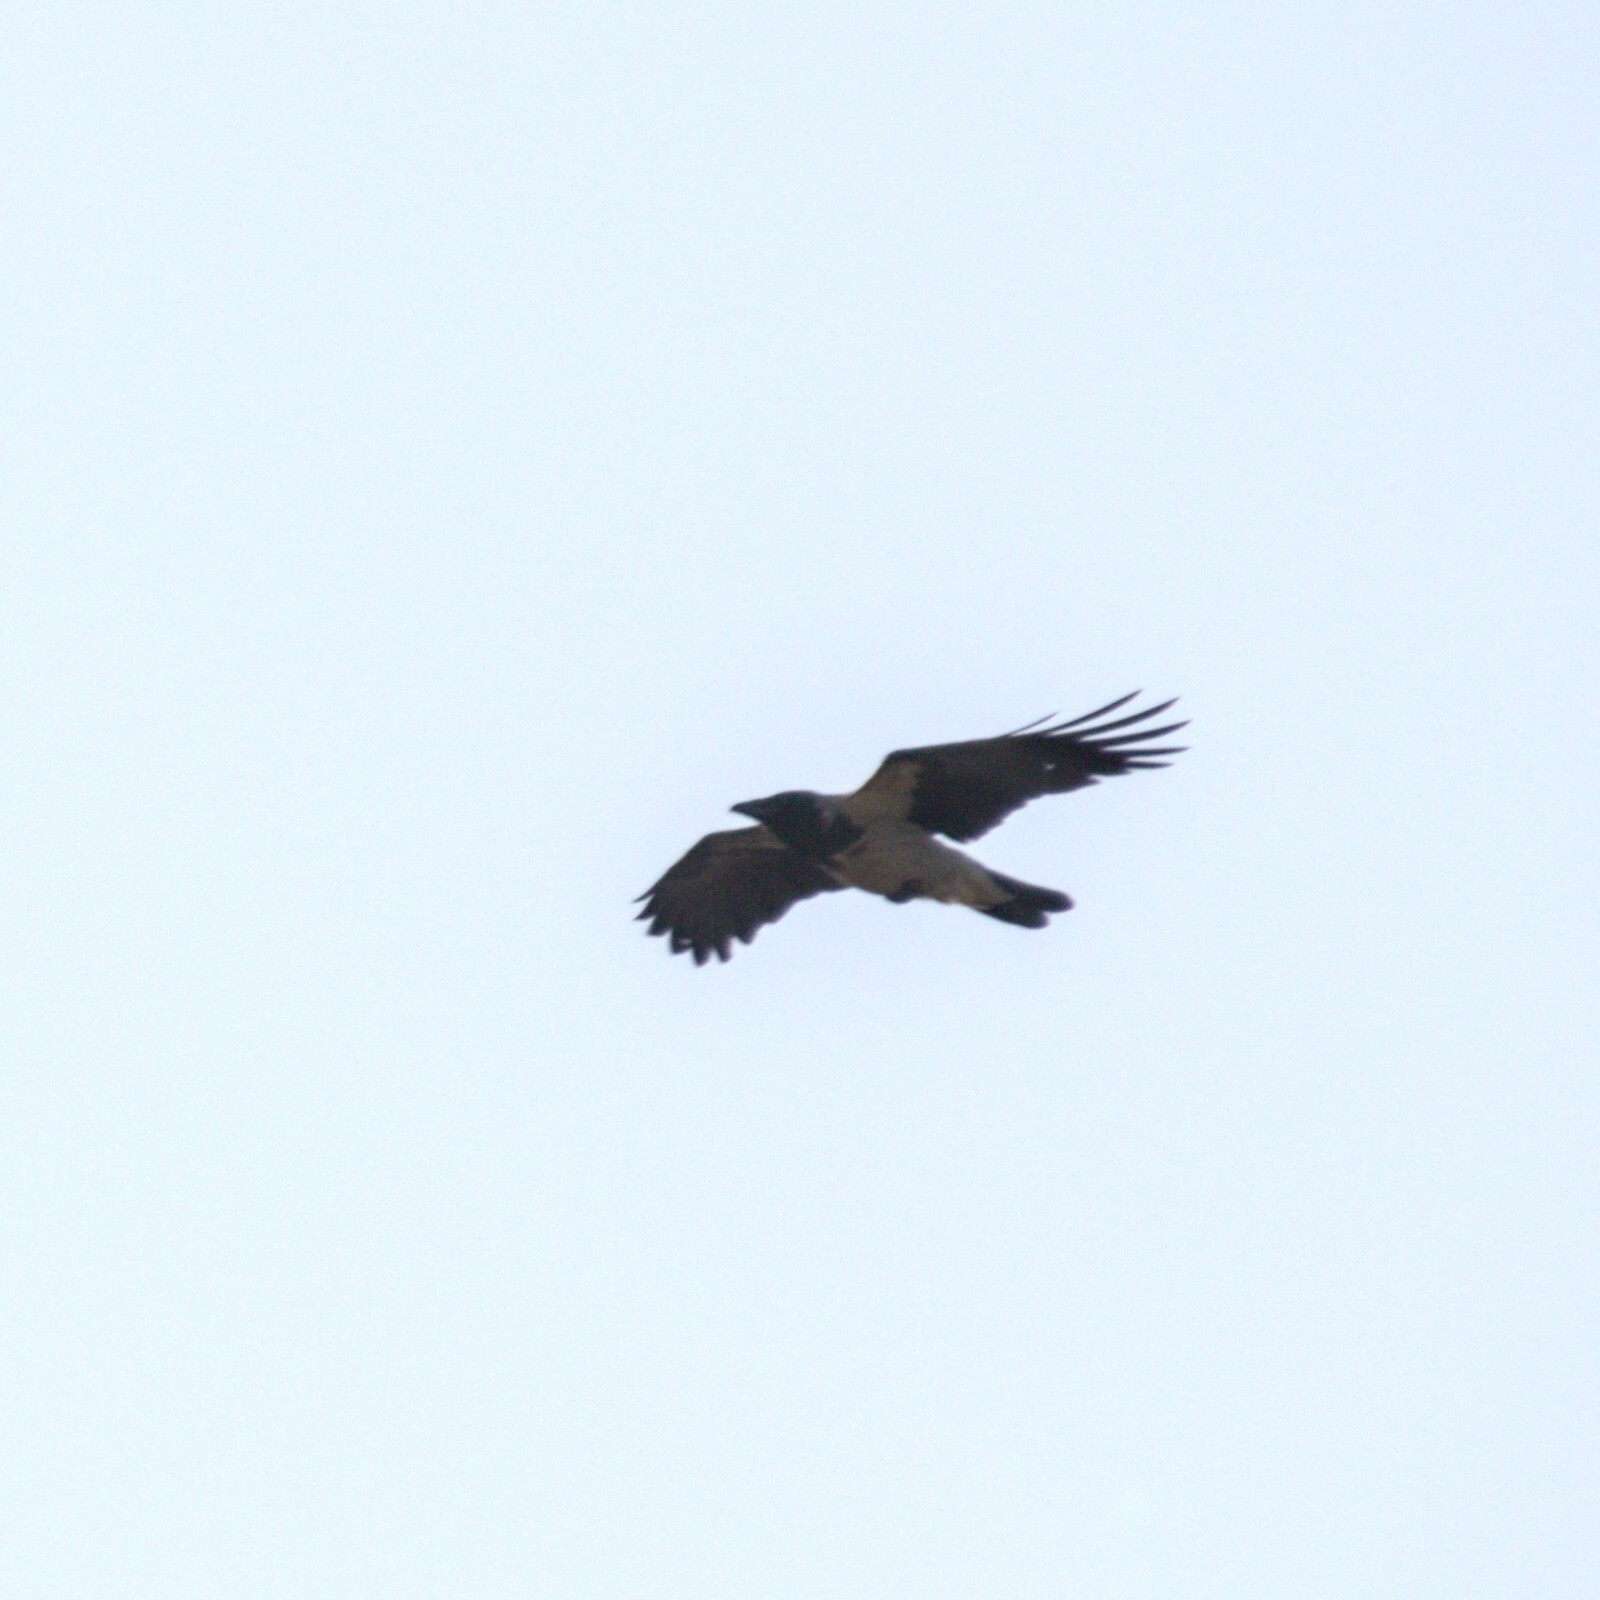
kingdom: Animalia
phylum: Chordata
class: Aves
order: Passeriformes
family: Corvidae
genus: Corvus
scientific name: Corvus cornix
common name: Hooded crow
